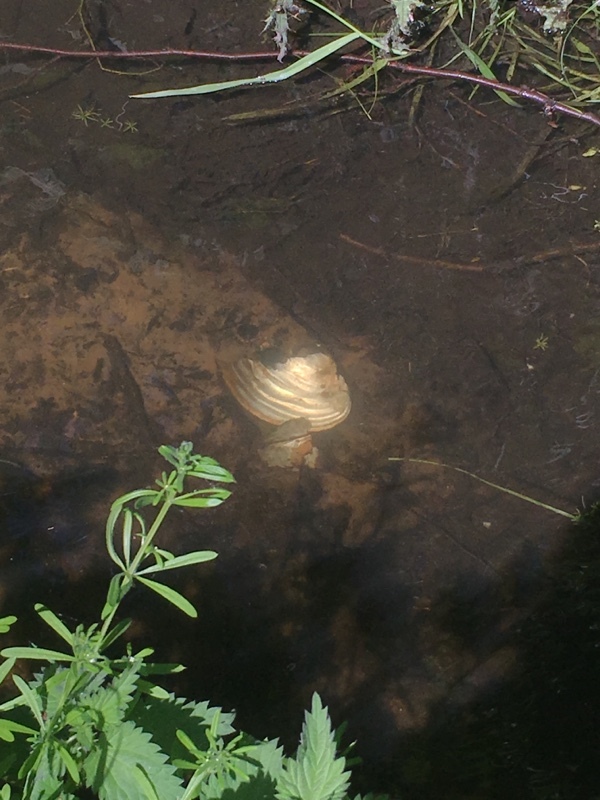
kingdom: Animalia
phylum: Mollusca
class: Bivalvia
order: Unionida
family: Unionidae
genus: Sinanodonta
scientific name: Sinanodonta woodiana
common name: Chinese pond mussel
